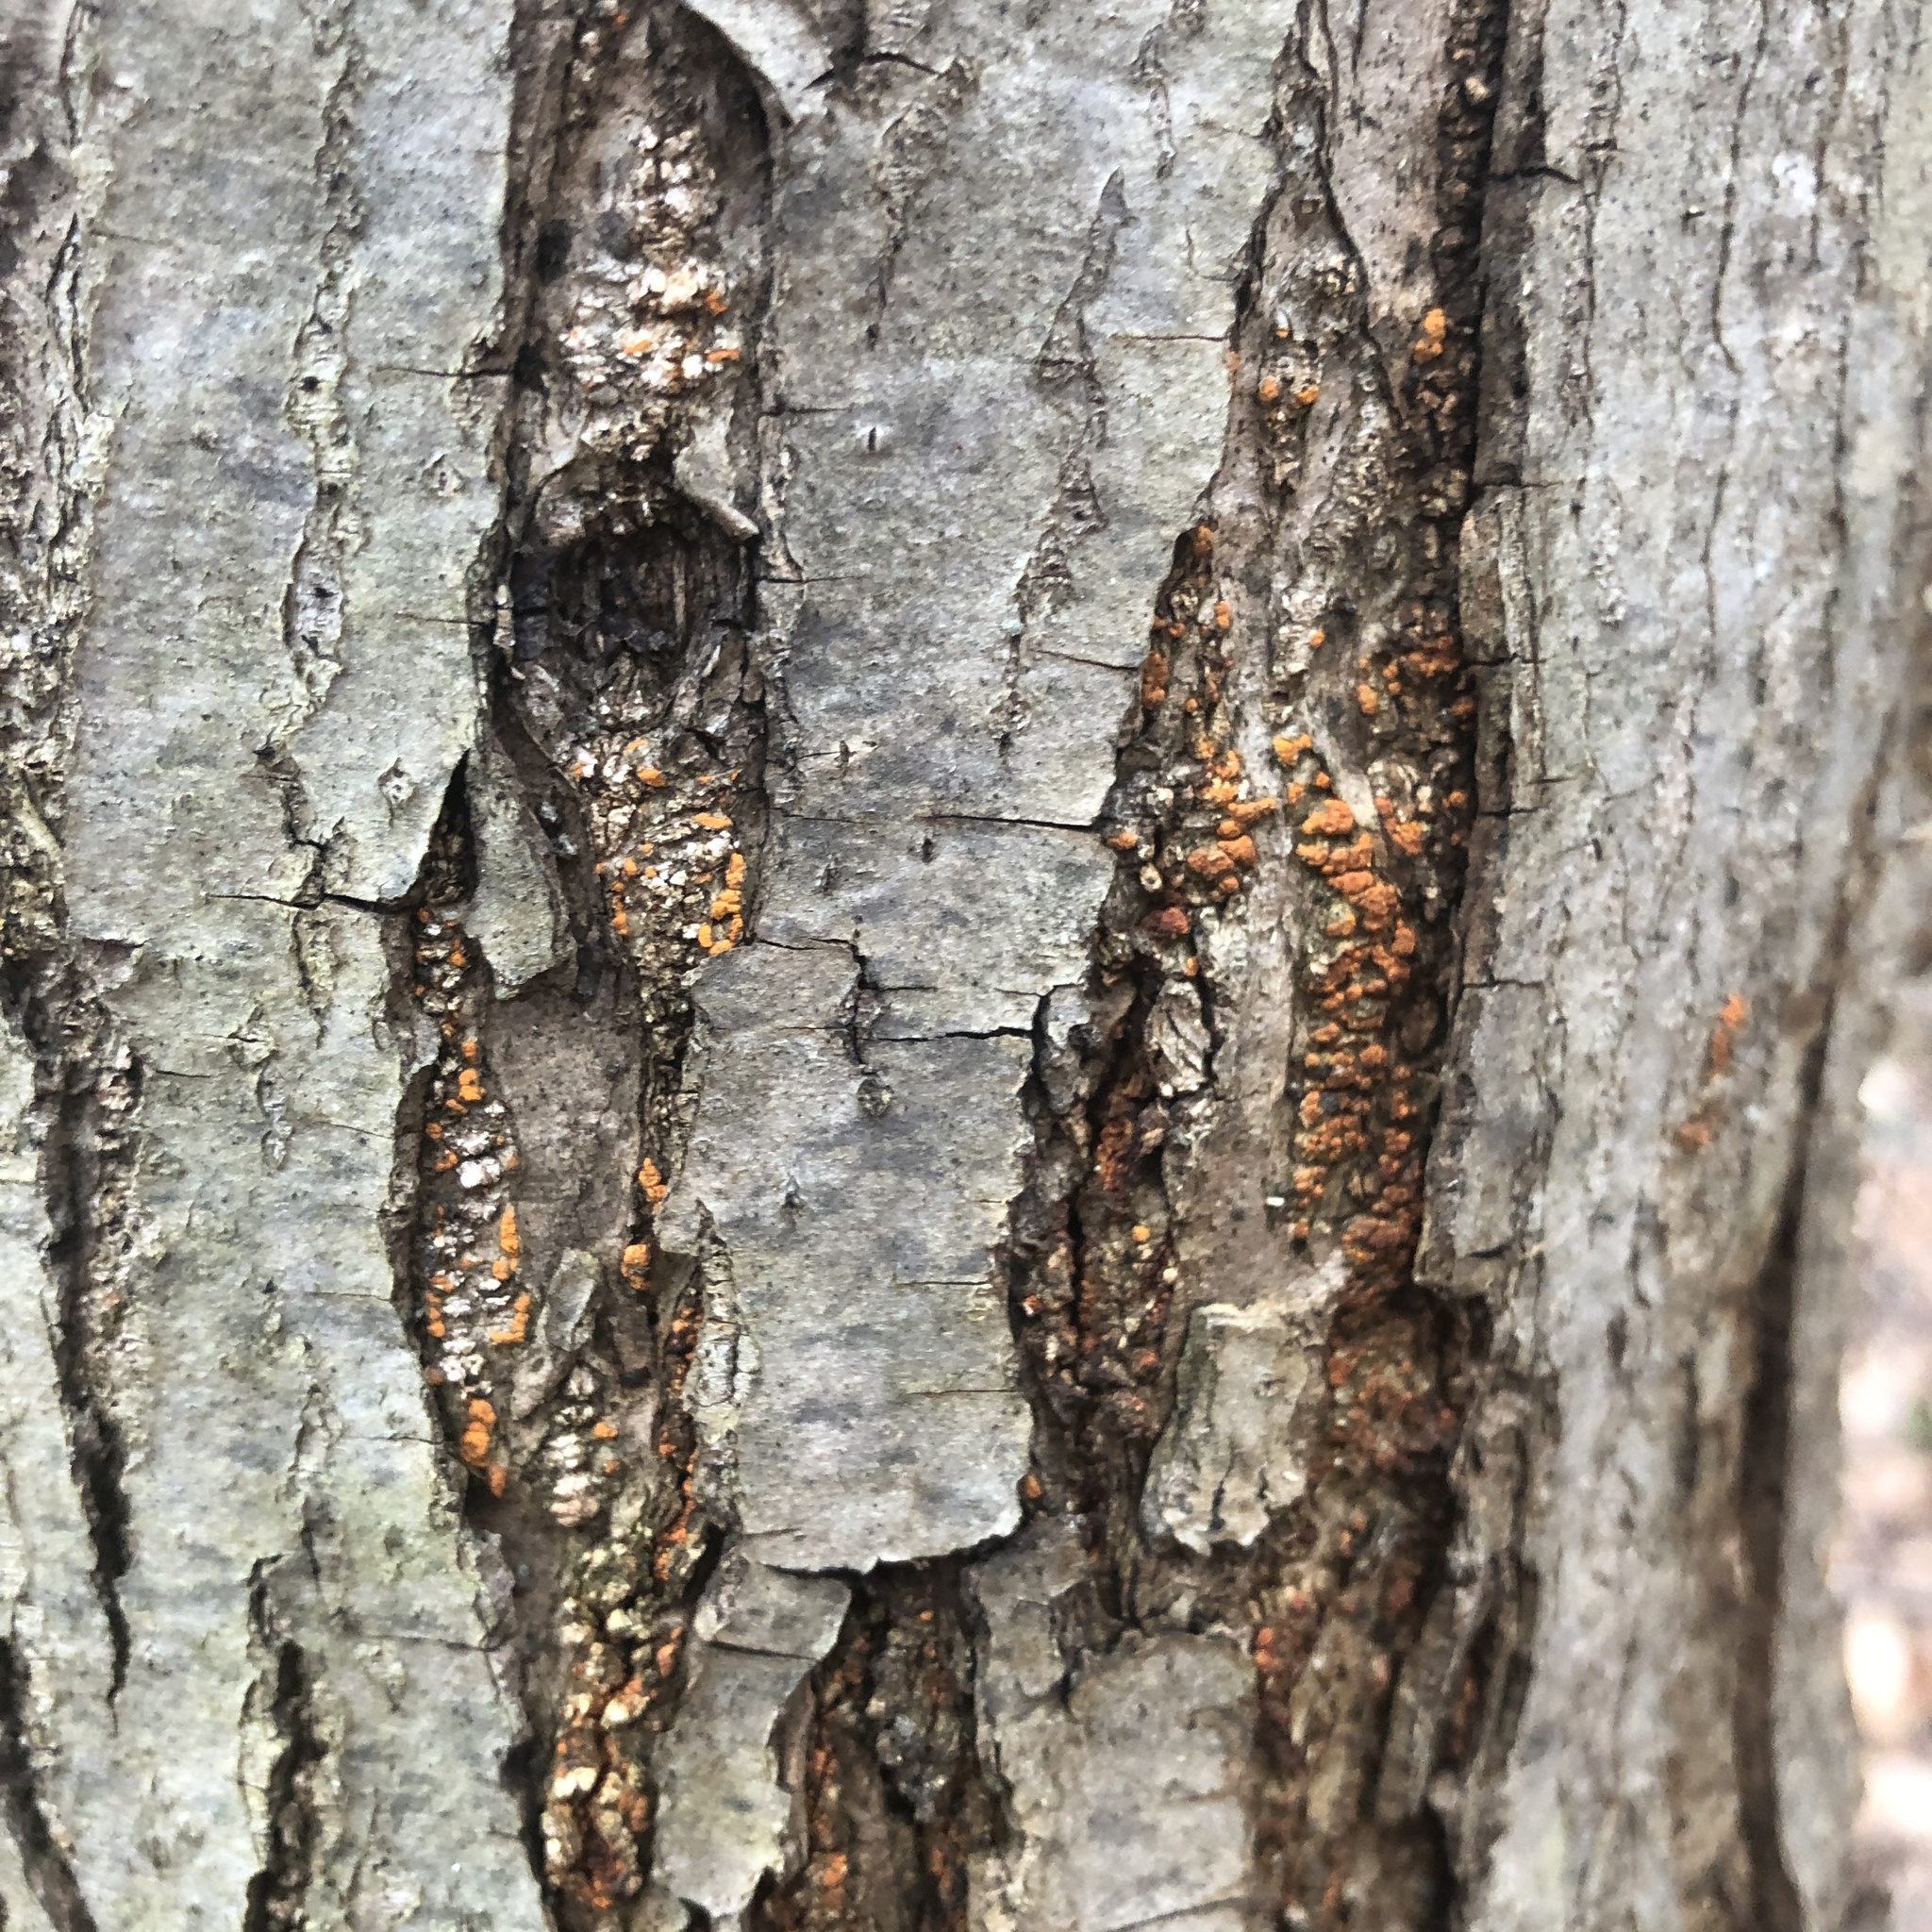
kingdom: Fungi
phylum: Ascomycota
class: Sordariomycetes
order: Diaporthales
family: Cryphonectriaceae
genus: Cryphonectria
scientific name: Cryphonectria parasitica
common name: Chestnut blight
